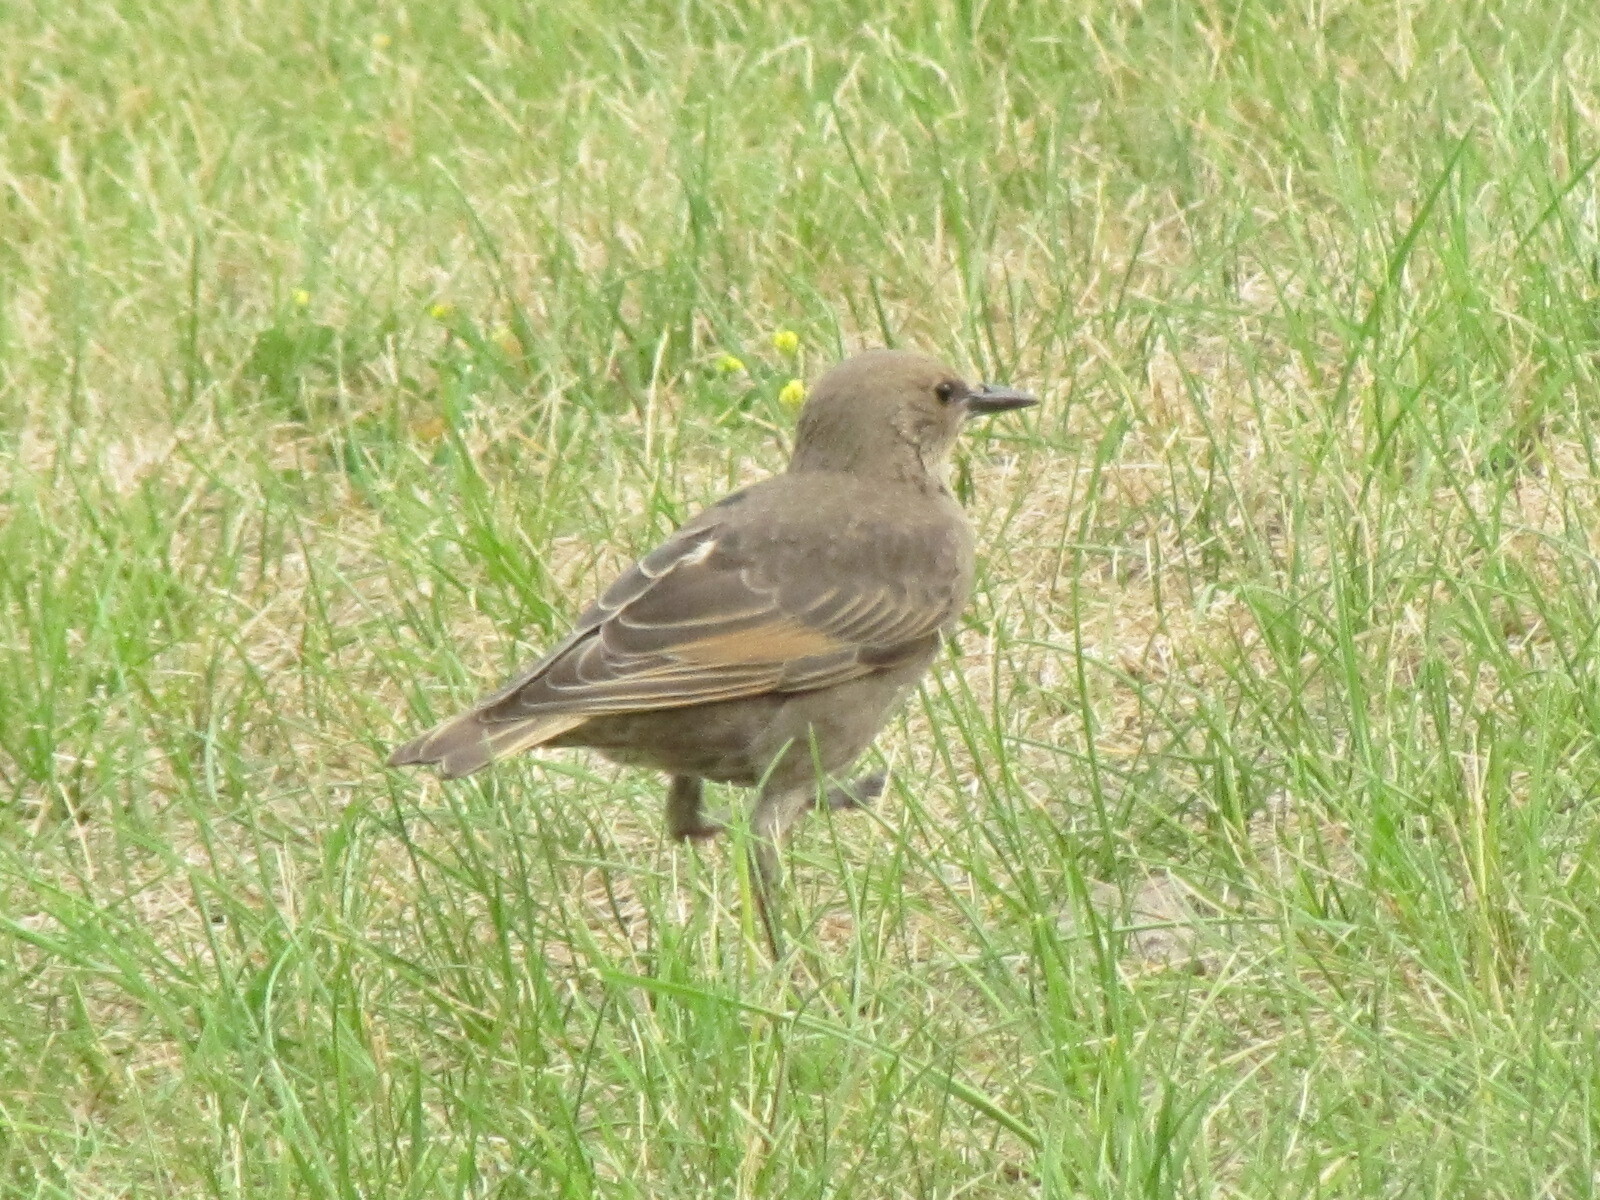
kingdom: Animalia
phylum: Chordata
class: Aves
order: Passeriformes
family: Sturnidae
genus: Sturnus
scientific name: Sturnus vulgaris
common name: Common starling
